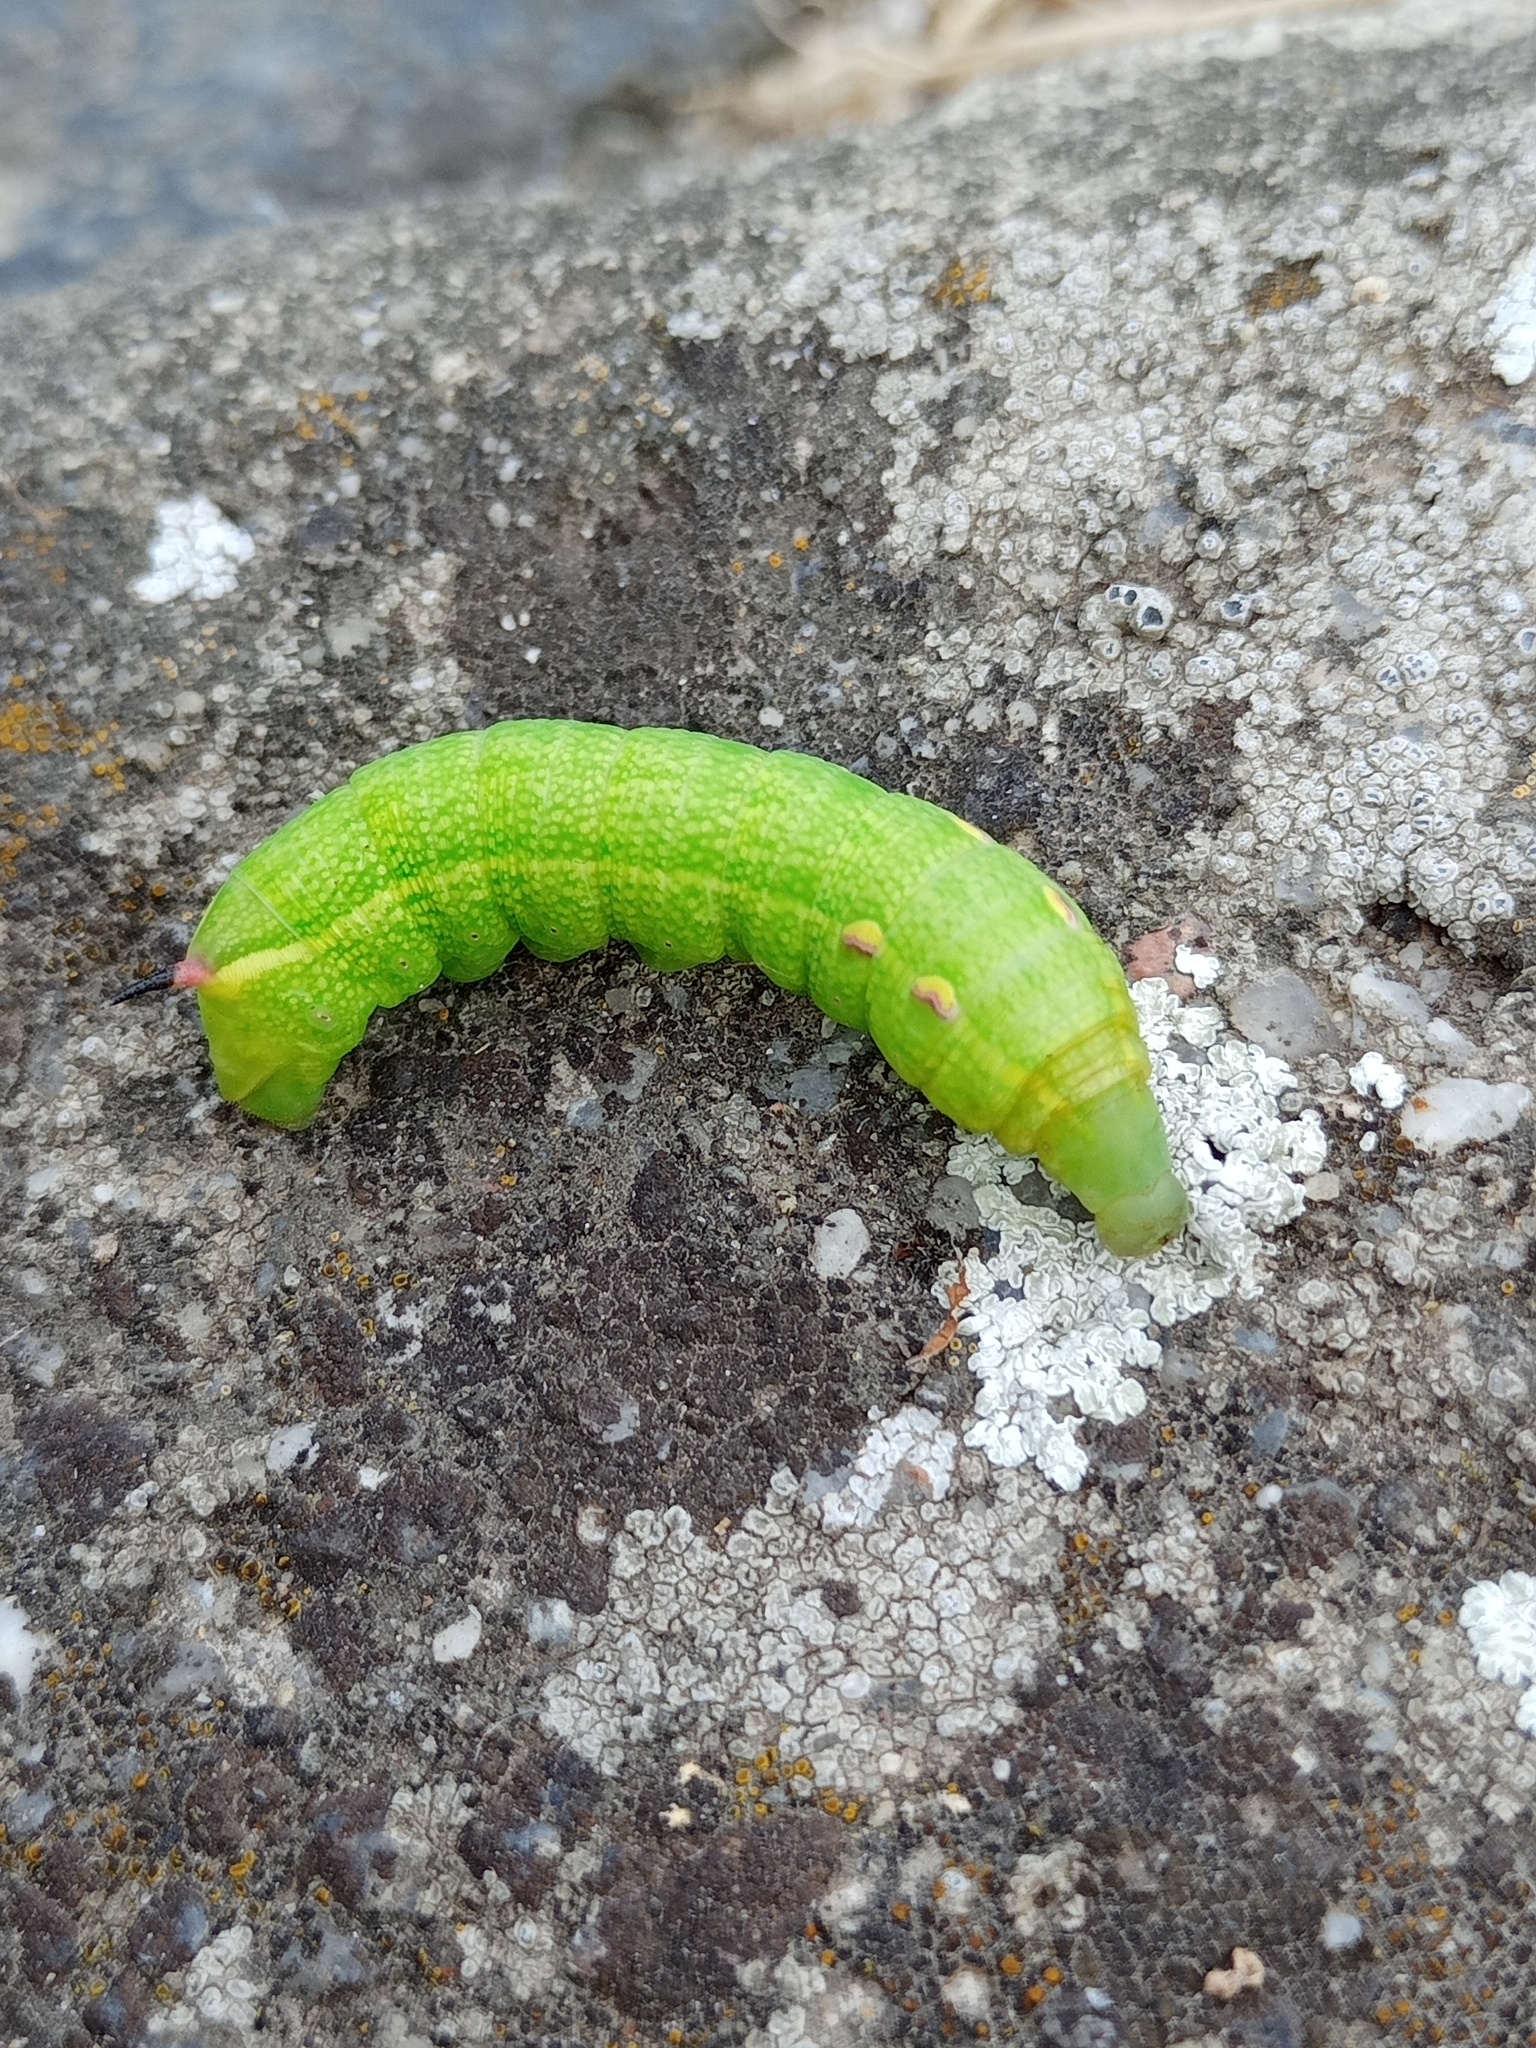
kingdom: Animalia
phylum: Arthropoda
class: Insecta
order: Lepidoptera
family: Sphingidae
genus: Deilephila
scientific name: Deilephila elpenor
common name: Elephant hawk-moth
